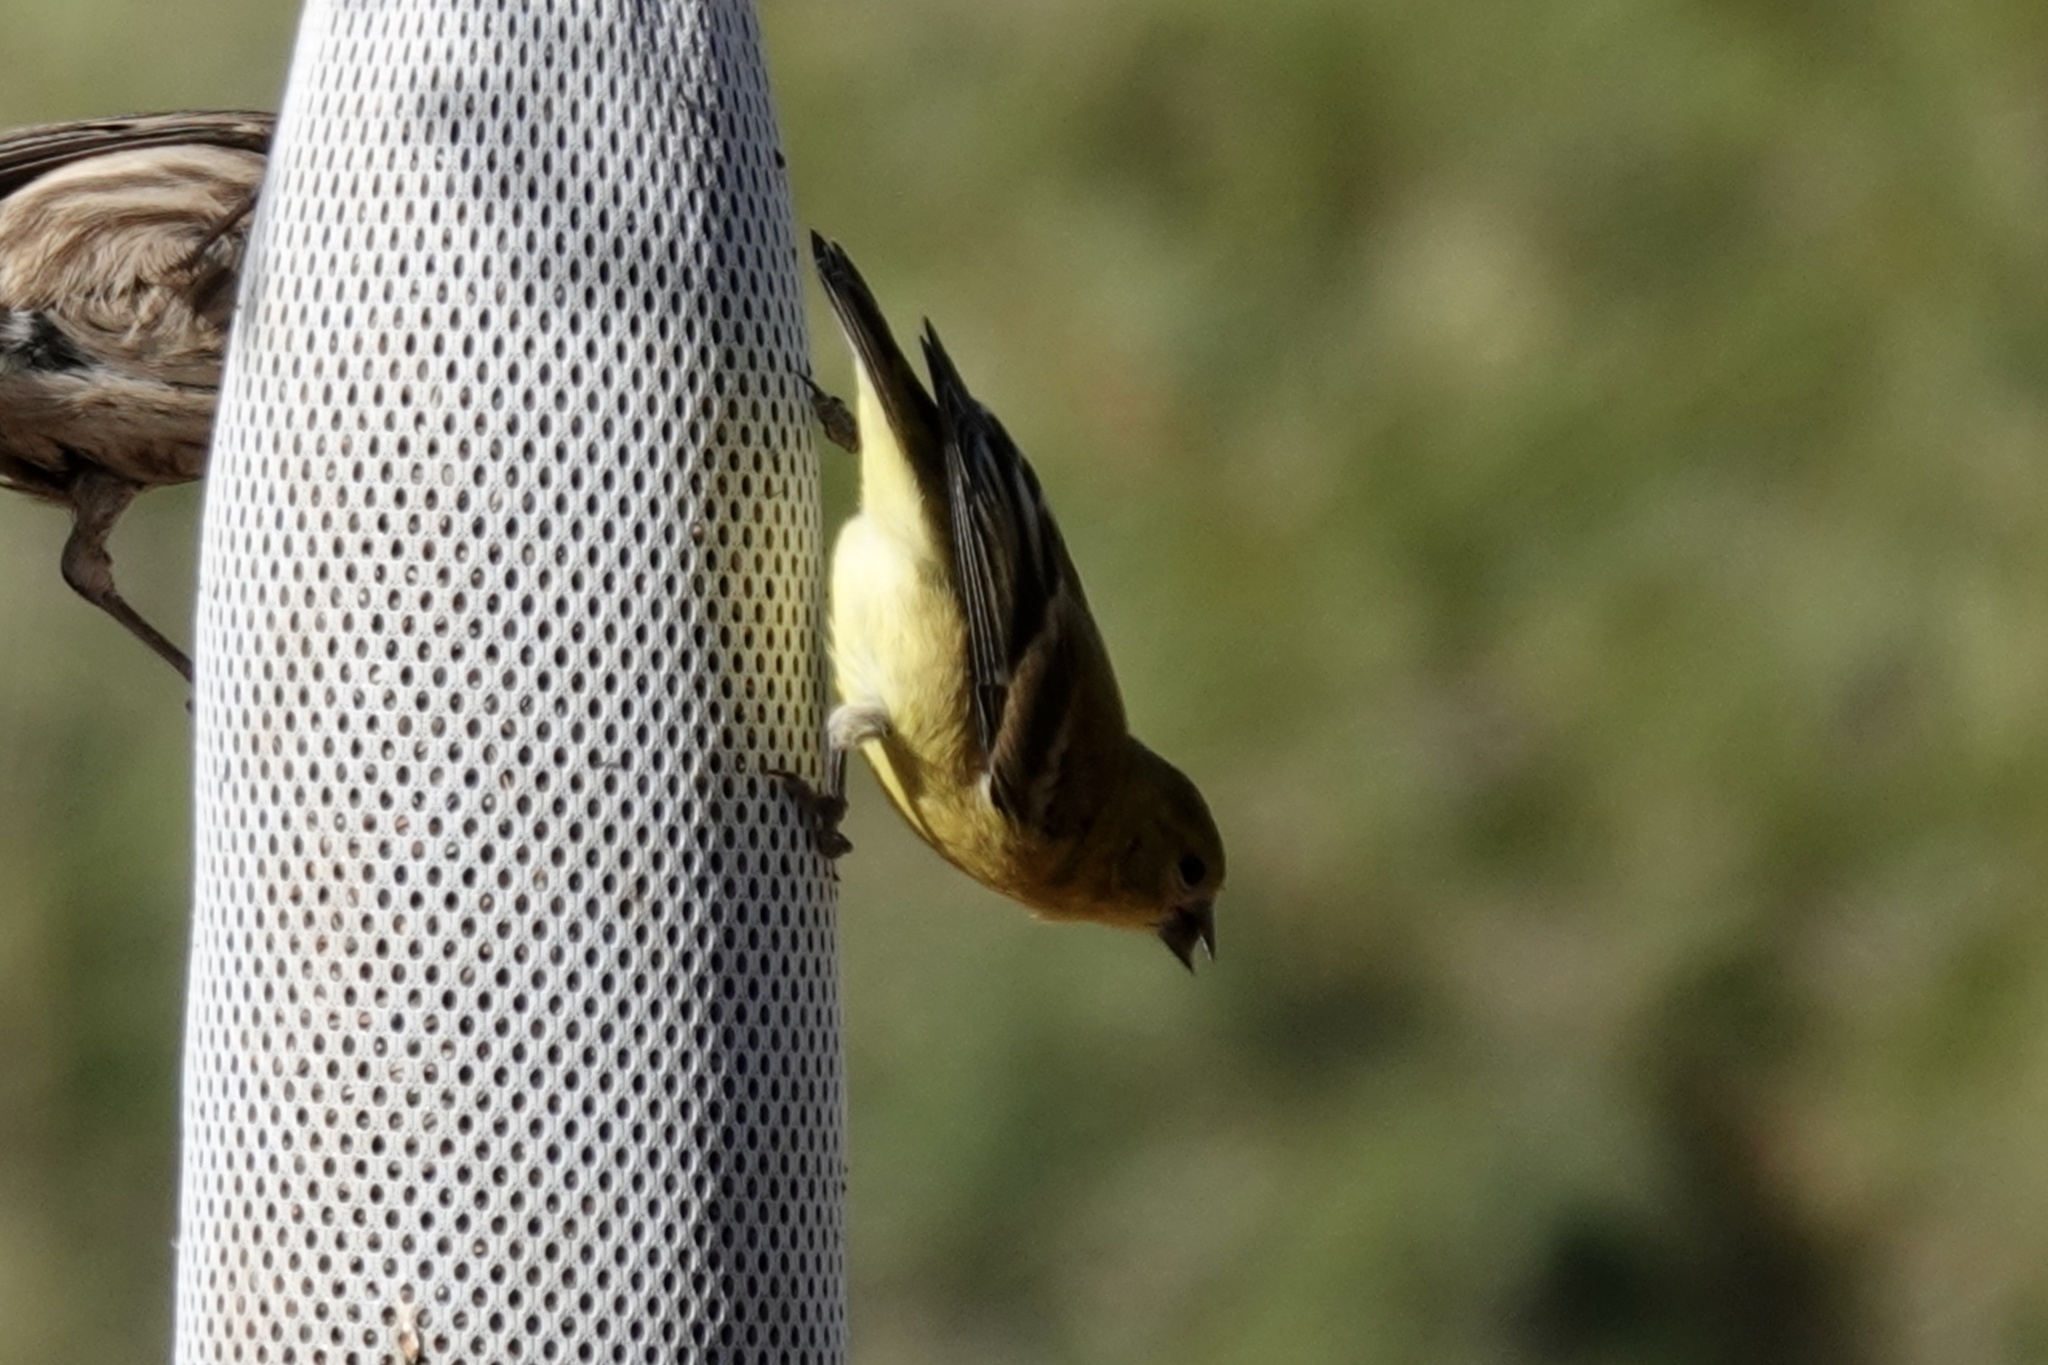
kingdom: Animalia
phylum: Chordata
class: Aves
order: Passeriformes
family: Fringillidae
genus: Spinus
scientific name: Spinus psaltria
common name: Lesser goldfinch
